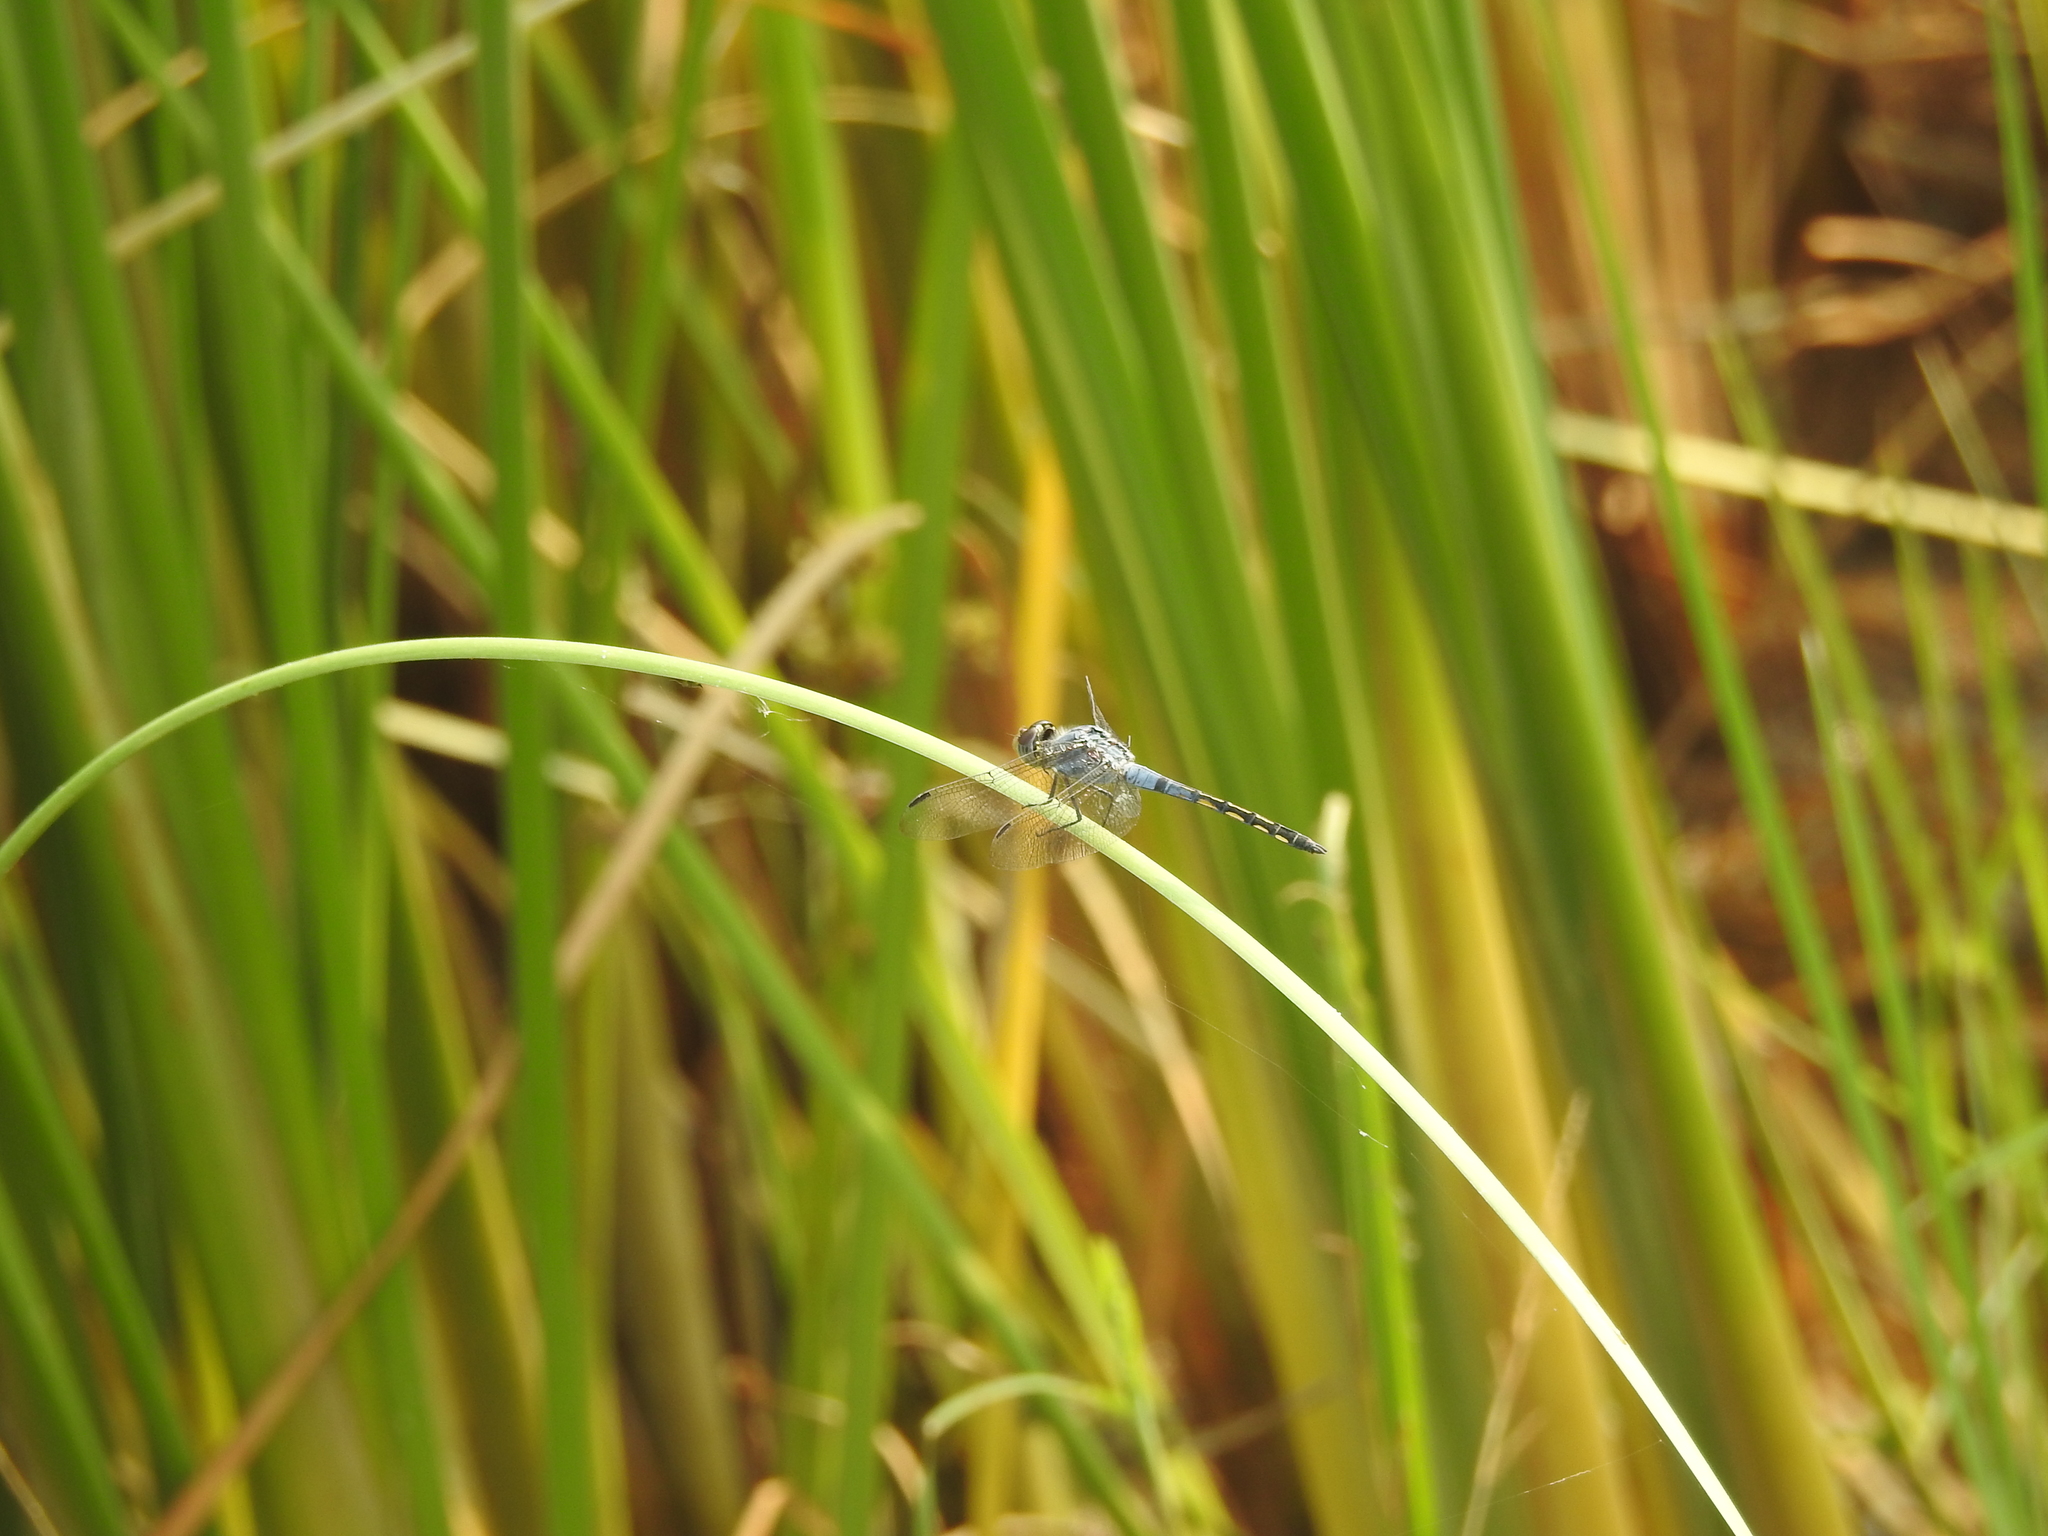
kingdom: Animalia
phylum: Arthropoda
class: Insecta
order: Odonata
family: Libellulidae
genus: Potamarcha
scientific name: Potamarcha congener
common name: Blue chaser
